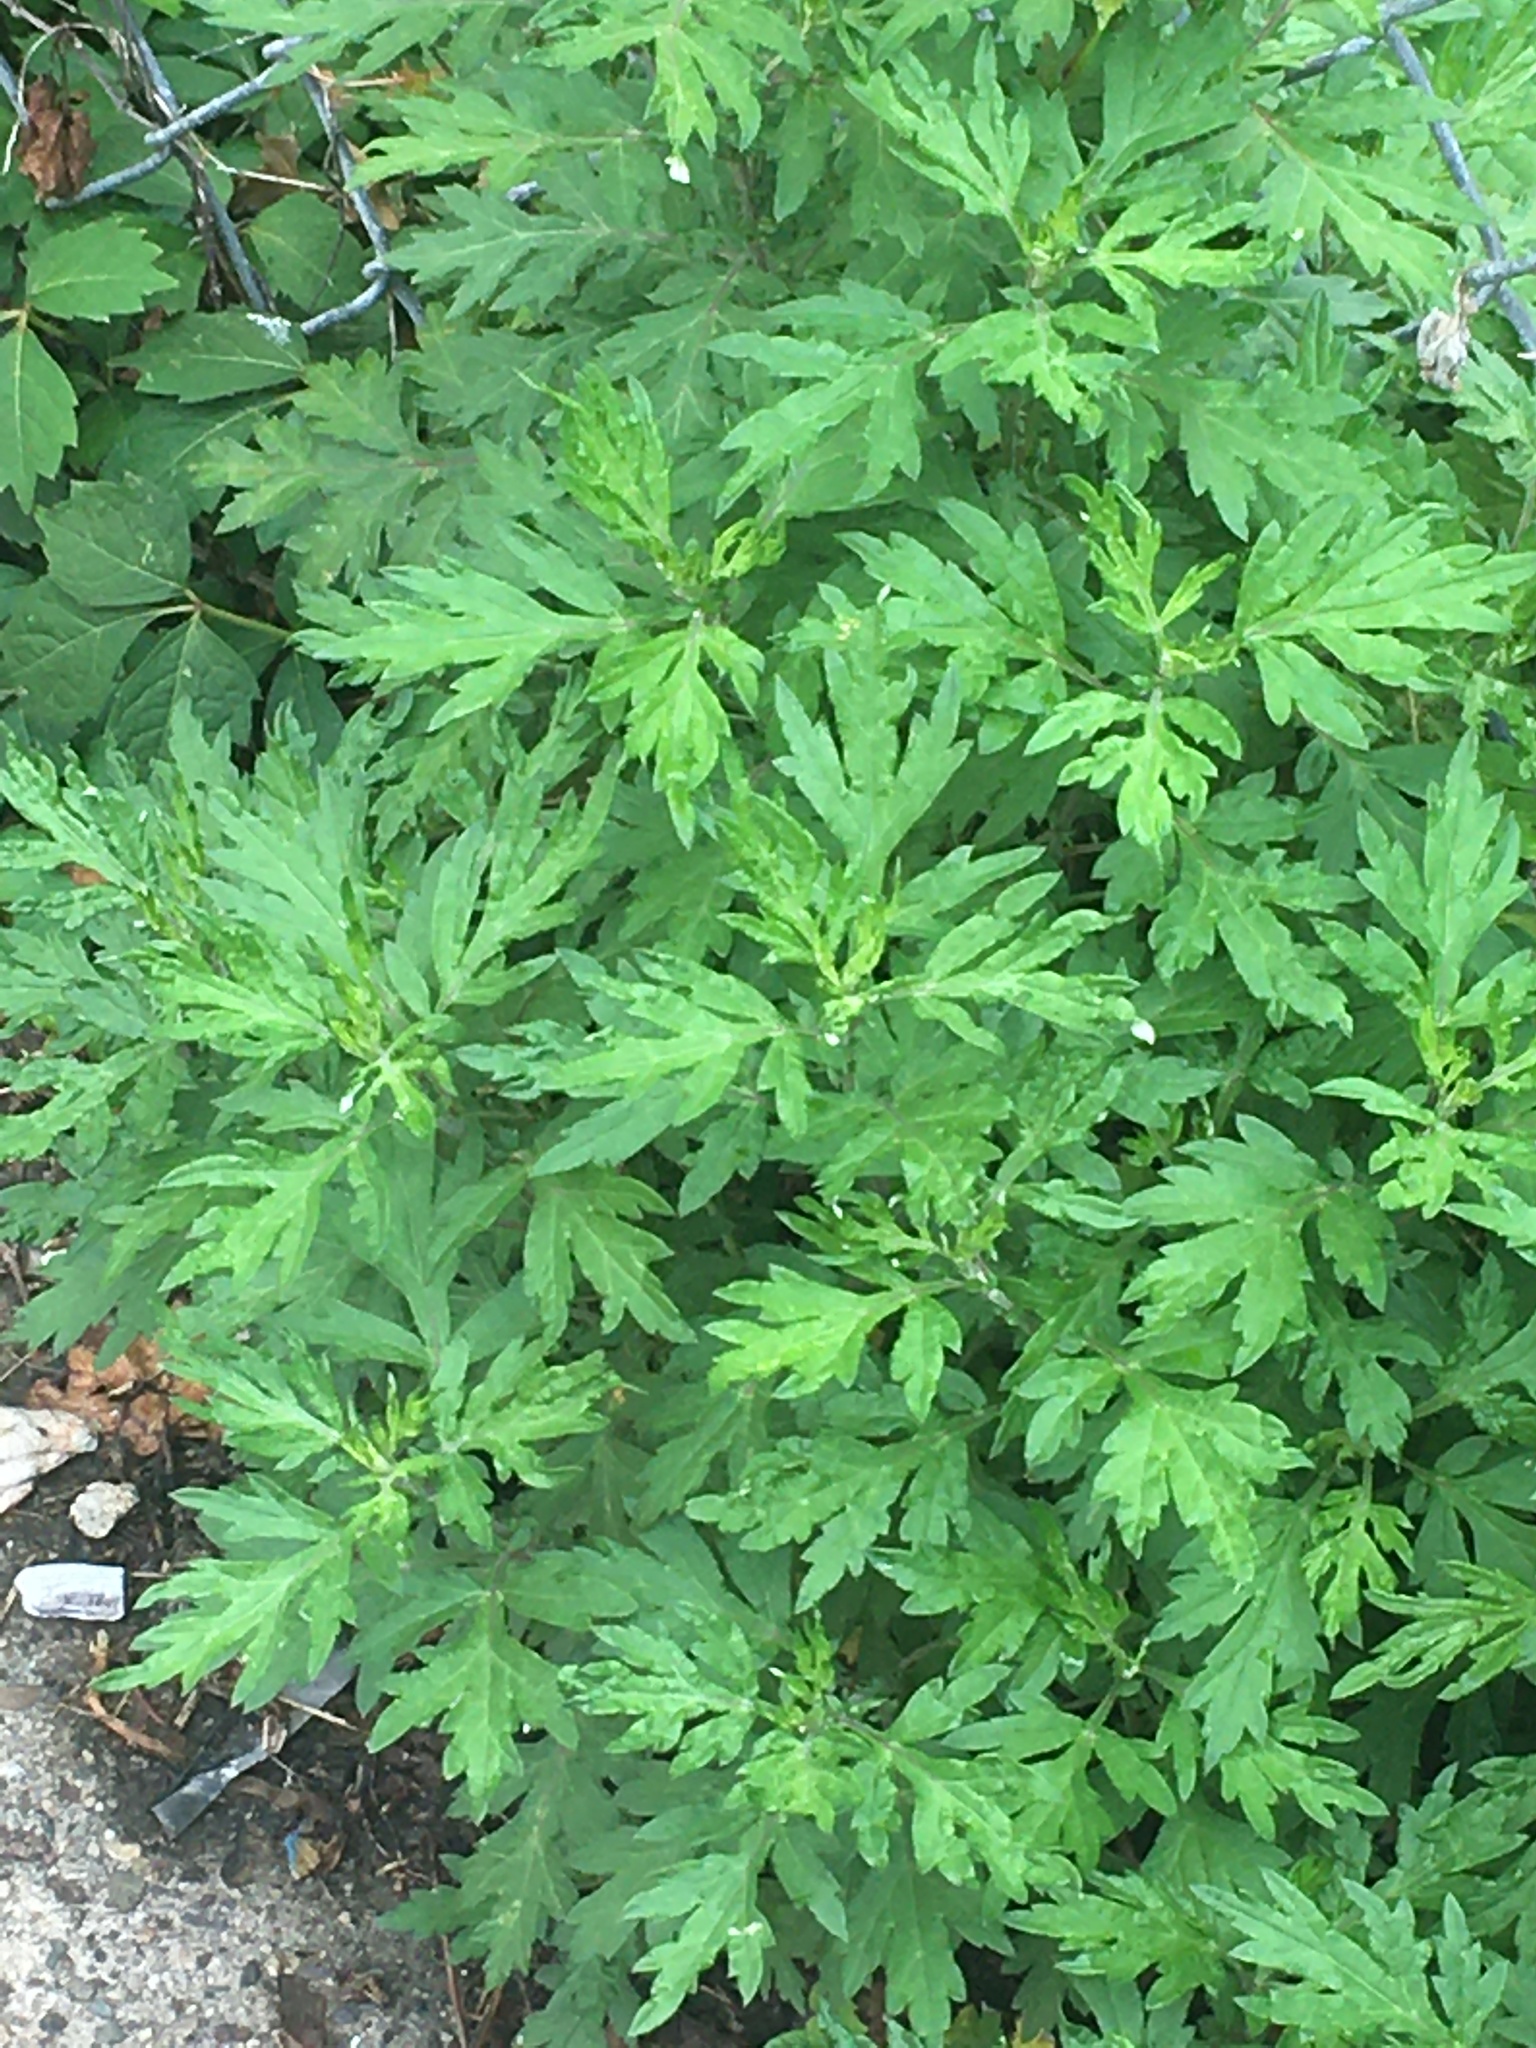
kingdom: Plantae
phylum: Tracheophyta
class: Magnoliopsida
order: Asterales
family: Asteraceae
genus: Ambrosia
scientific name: Ambrosia artemisiifolia
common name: Annual ragweed
